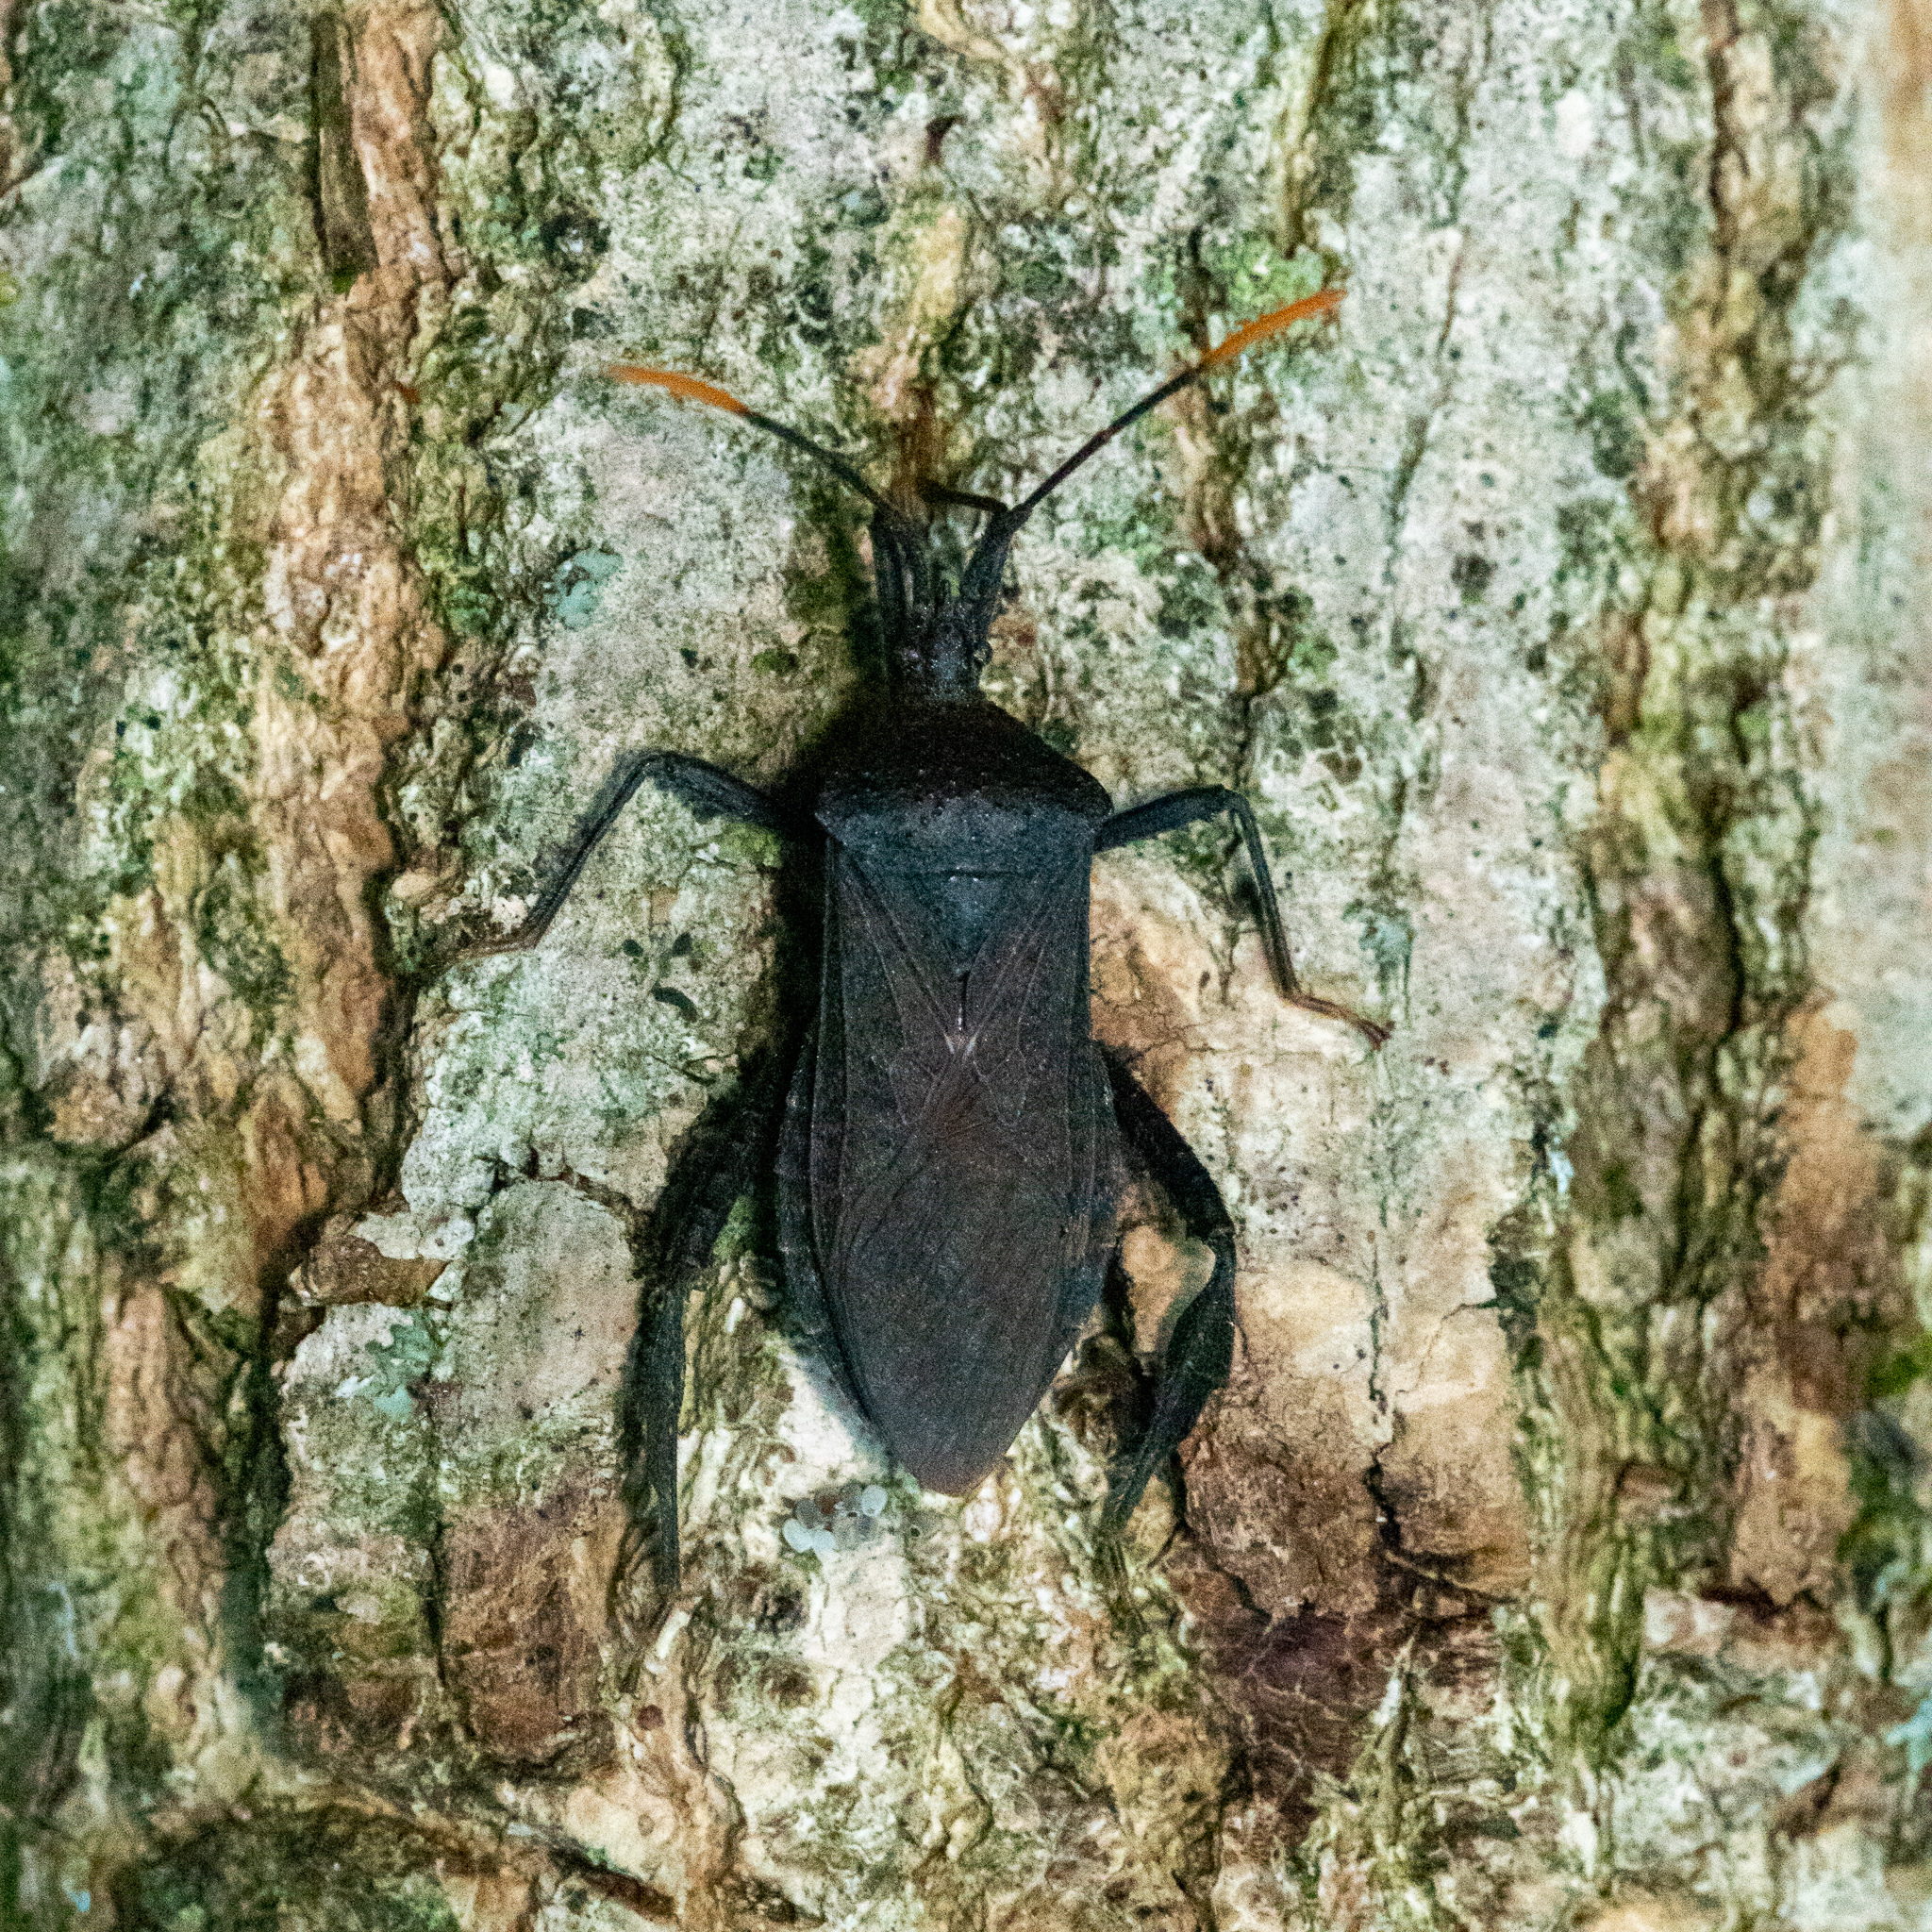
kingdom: Animalia
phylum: Arthropoda
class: Insecta
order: Hemiptera
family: Coreidae
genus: Acanthocephala
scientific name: Acanthocephala terminalis
